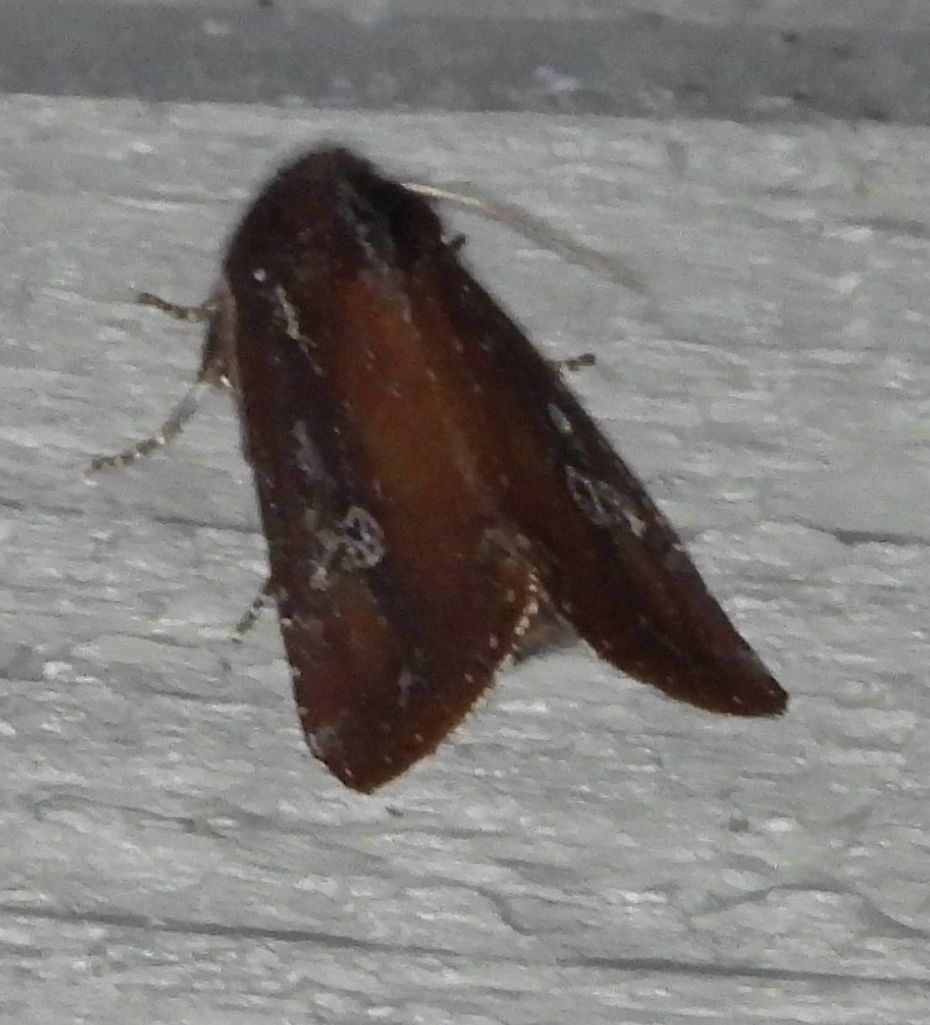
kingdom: Animalia
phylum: Arthropoda
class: Insecta
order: Lepidoptera
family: Noctuidae
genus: Melanchra
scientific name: Melanchra picta
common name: Zebra caterpillar
